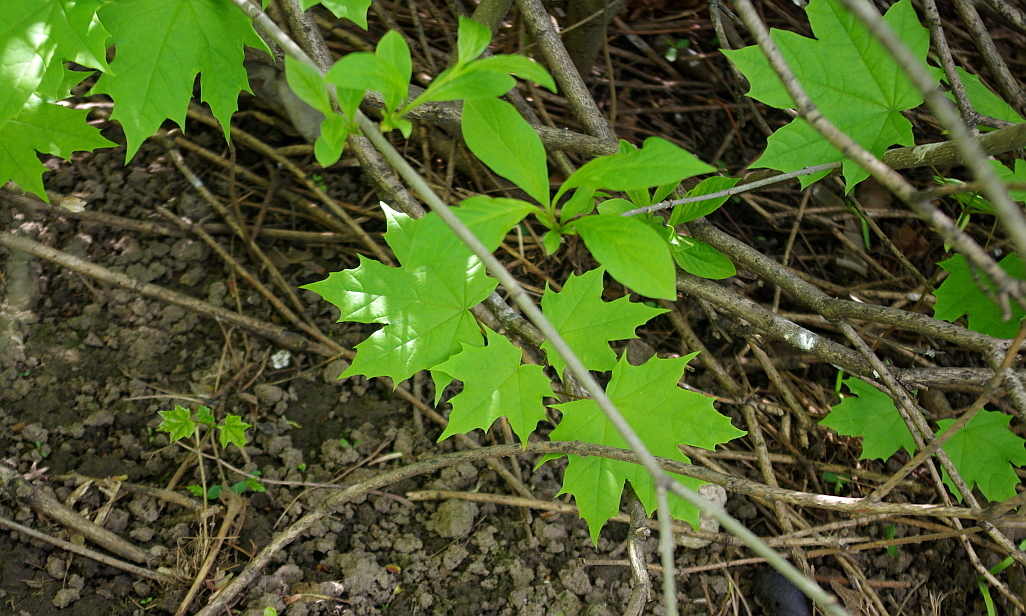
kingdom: Plantae
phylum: Tracheophyta
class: Magnoliopsida
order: Sapindales
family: Sapindaceae
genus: Acer
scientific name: Acer platanoides
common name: Norway maple
